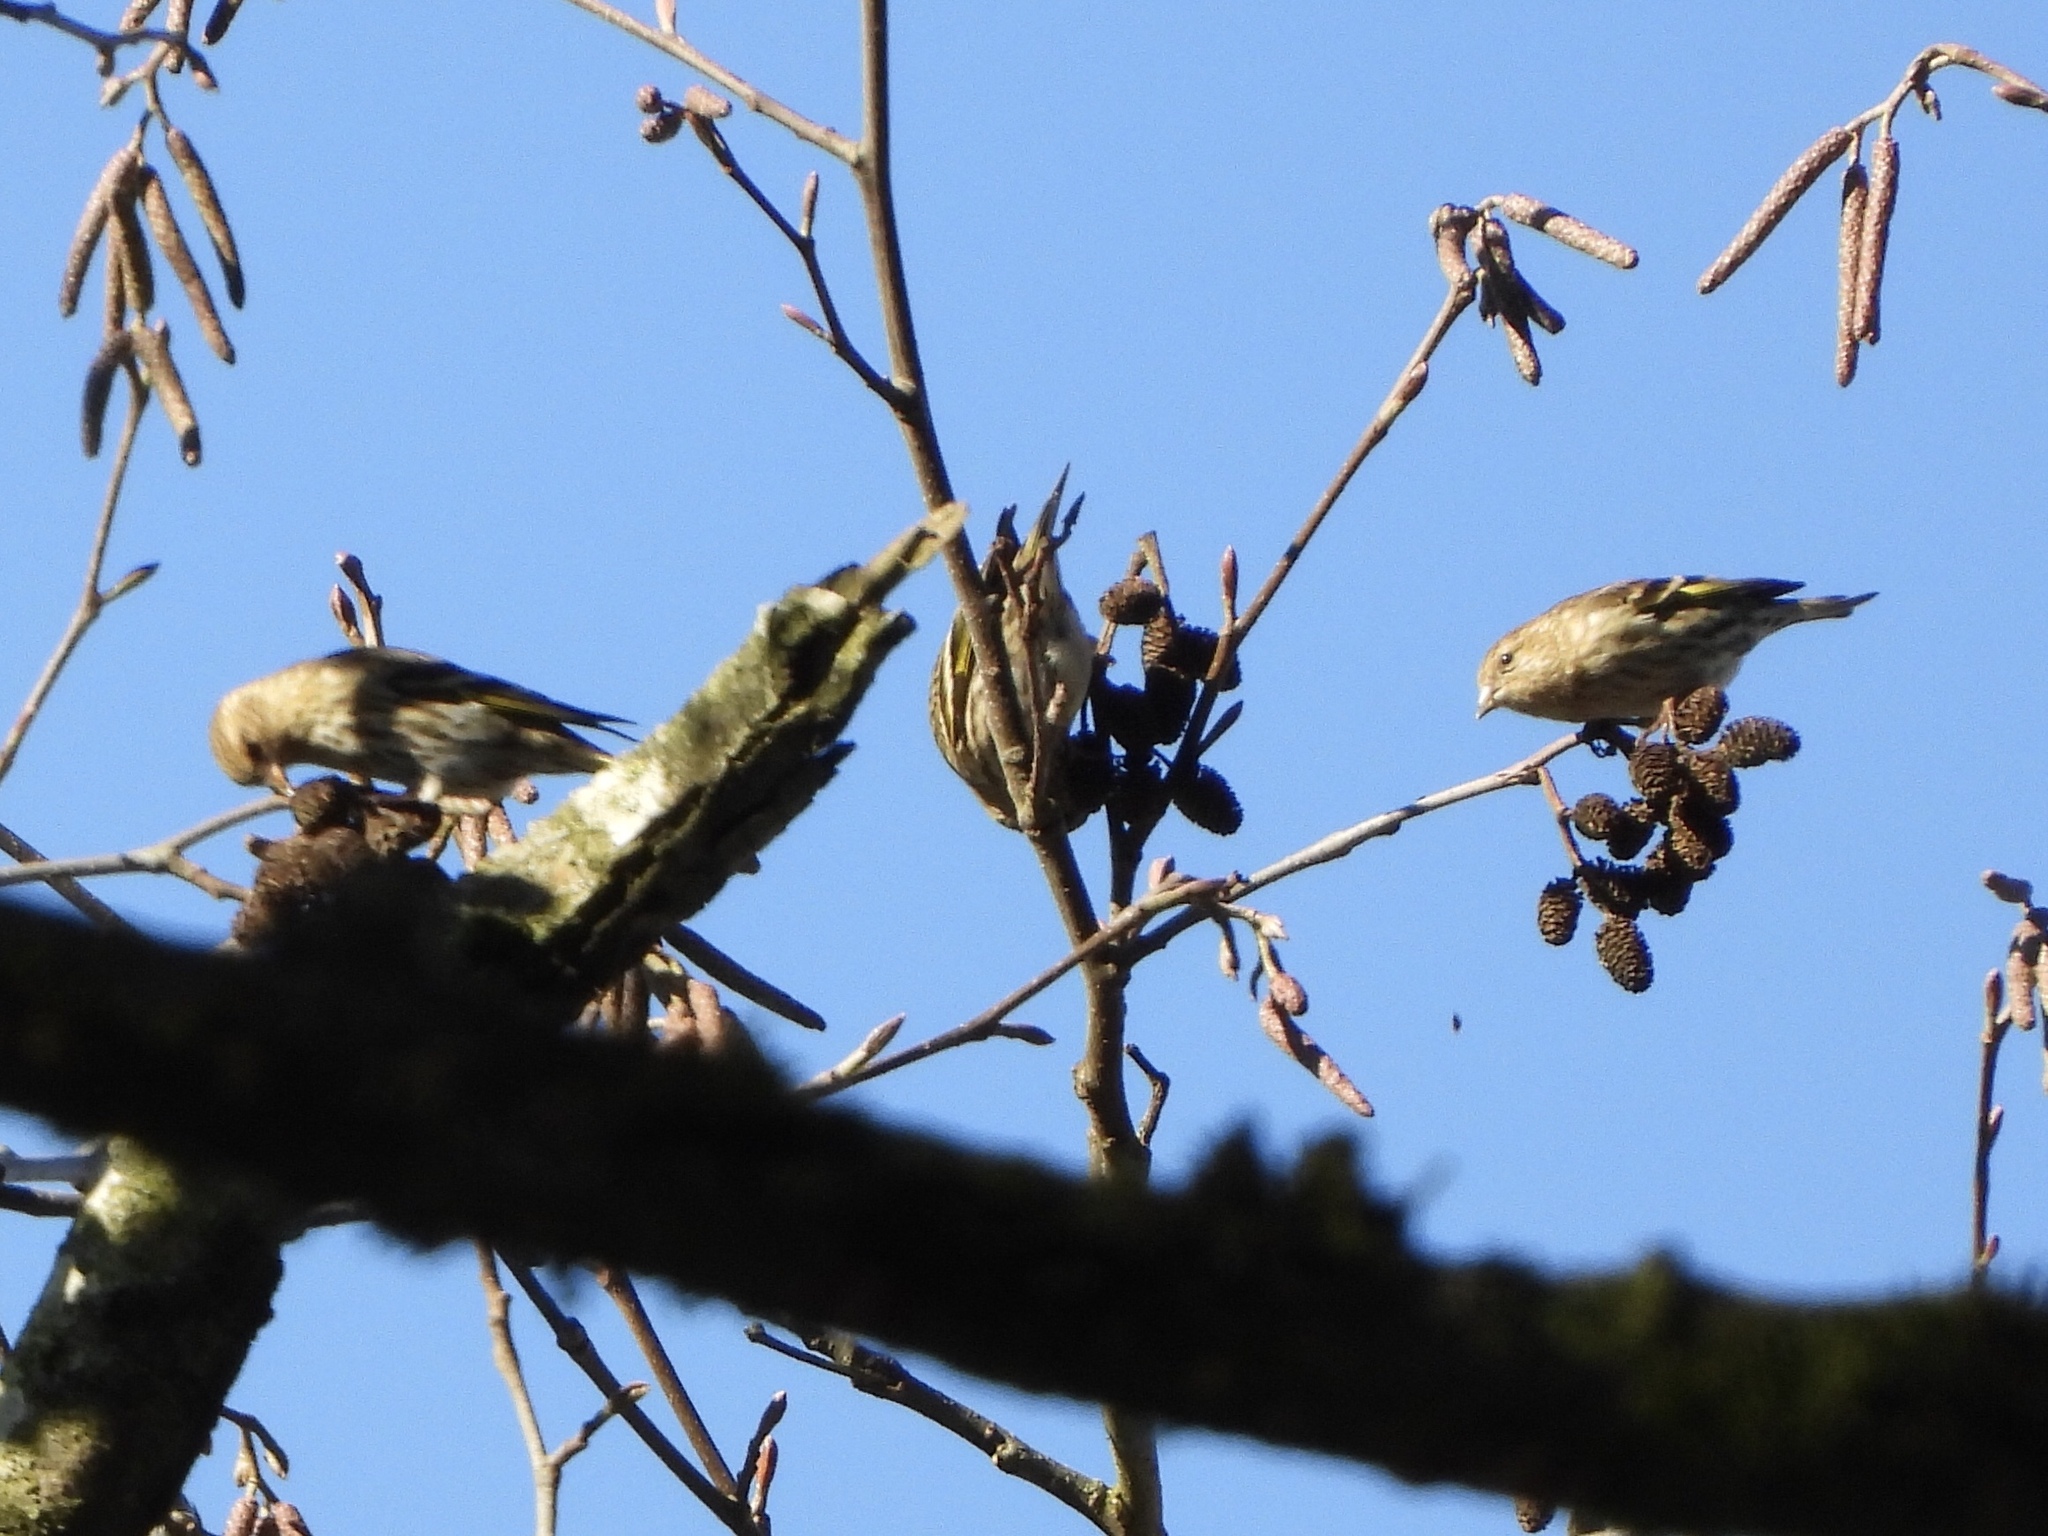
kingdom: Animalia
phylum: Chordata
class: Aves
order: Passeriformes
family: Fringillidae
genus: Spinus
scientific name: Spinus pinus
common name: Pine siskin
